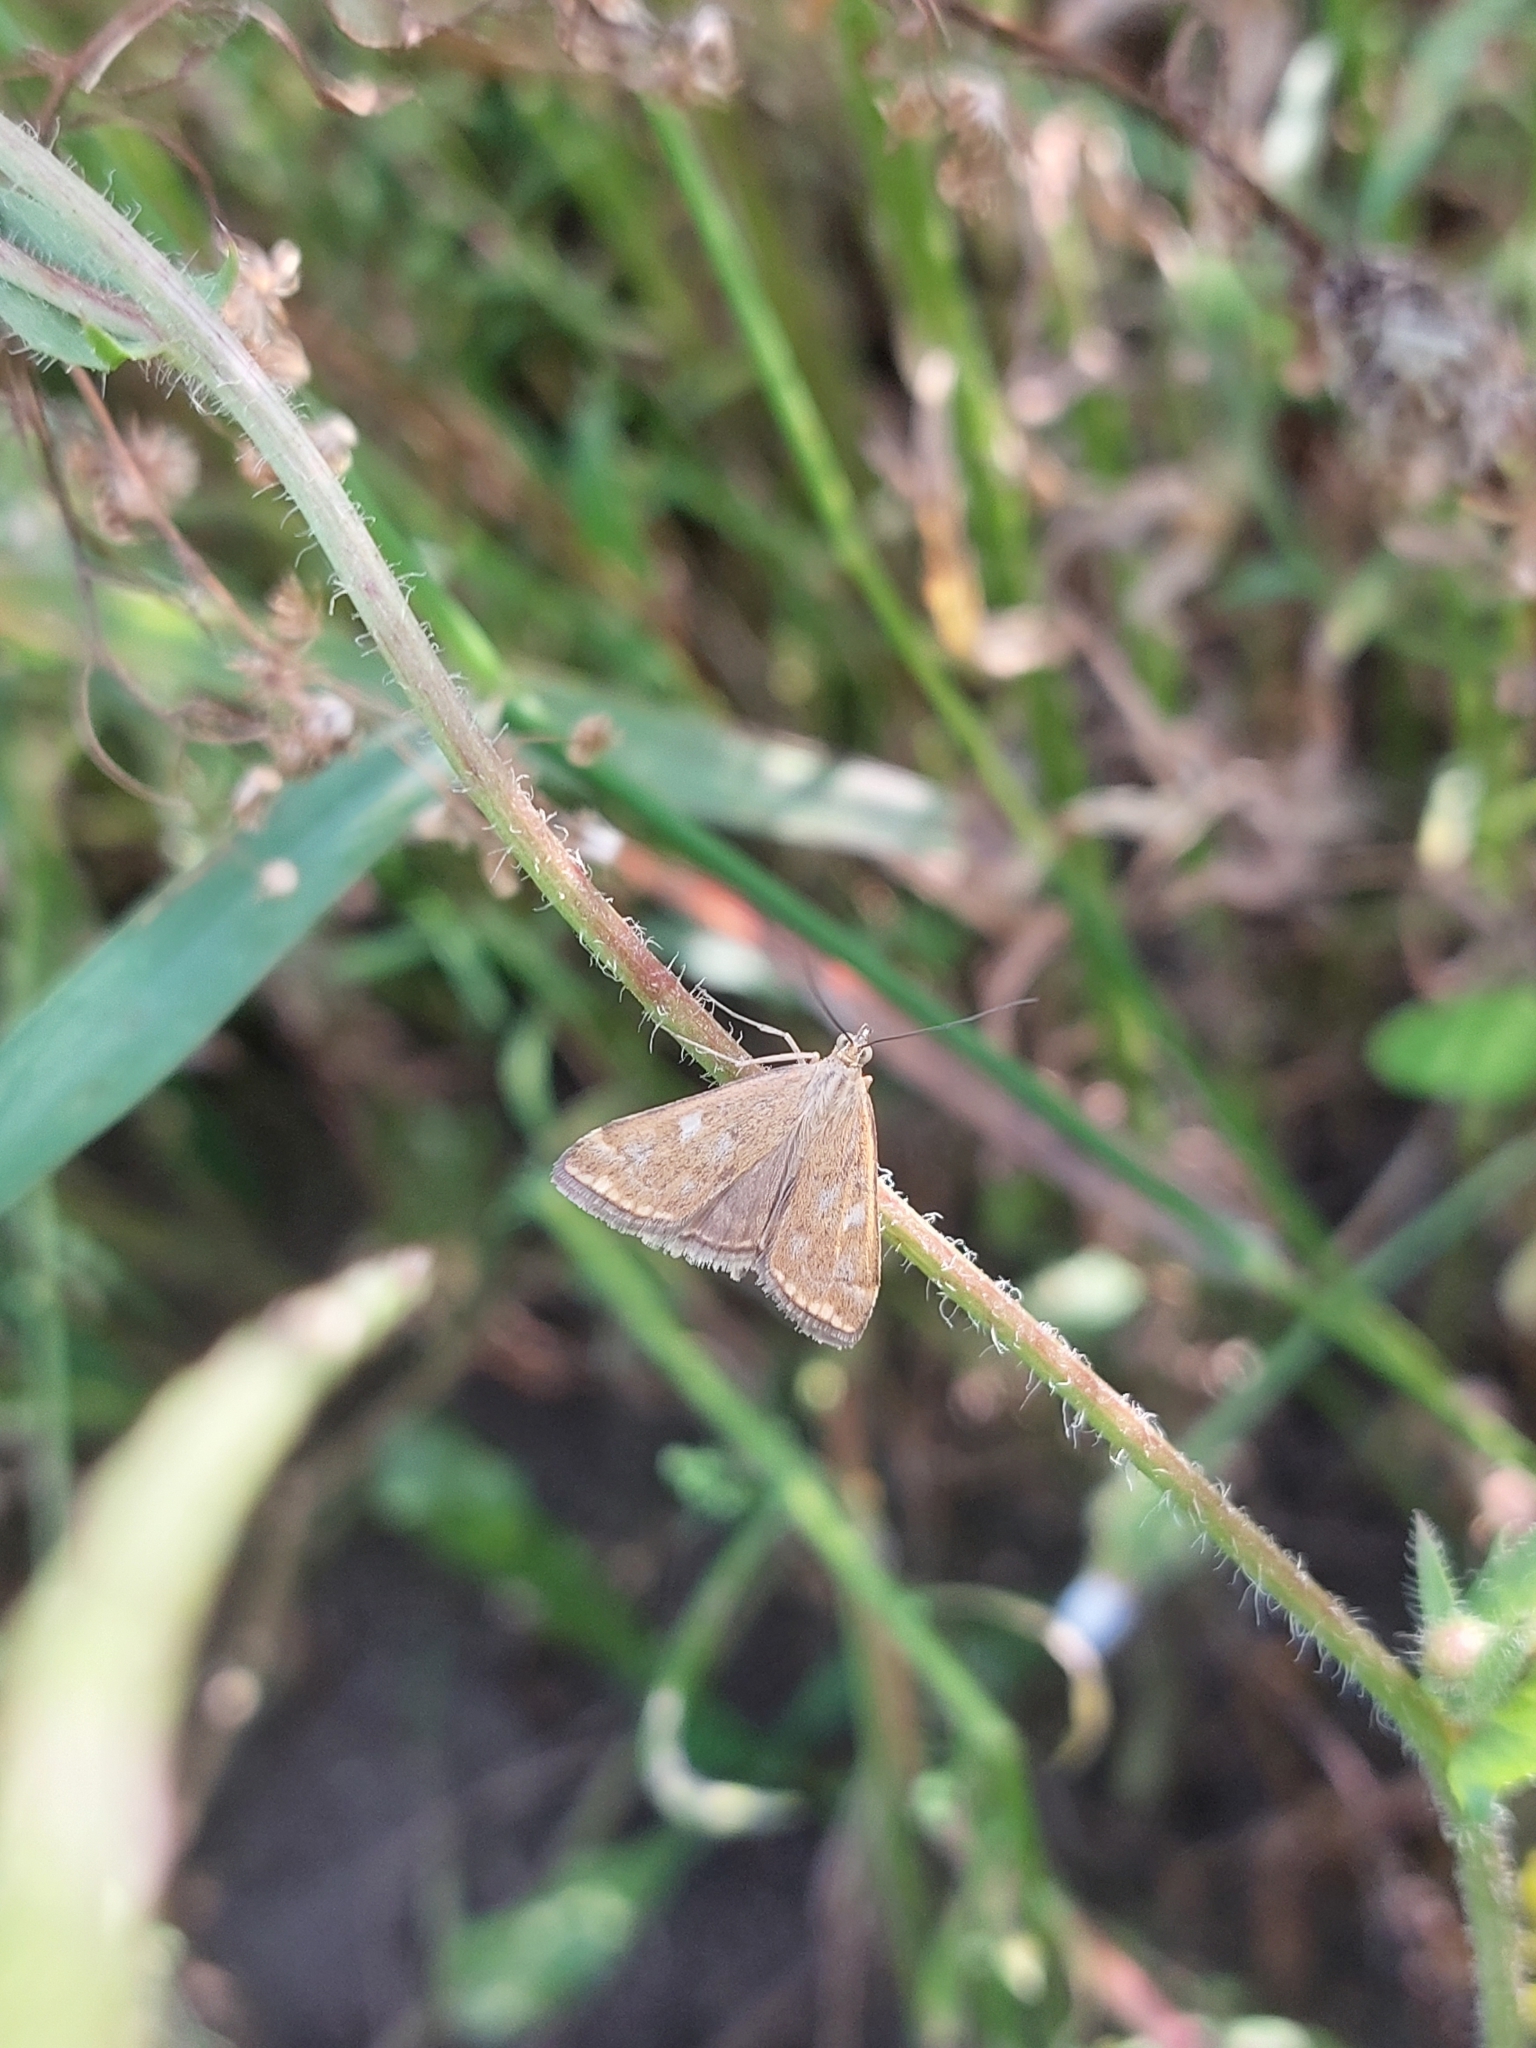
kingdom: Animalia
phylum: Arthropoda
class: Insecta
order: Lepidoptera
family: Crambidae
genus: Loxostege
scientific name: Loxostege sticticalis
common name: Crambid moth
